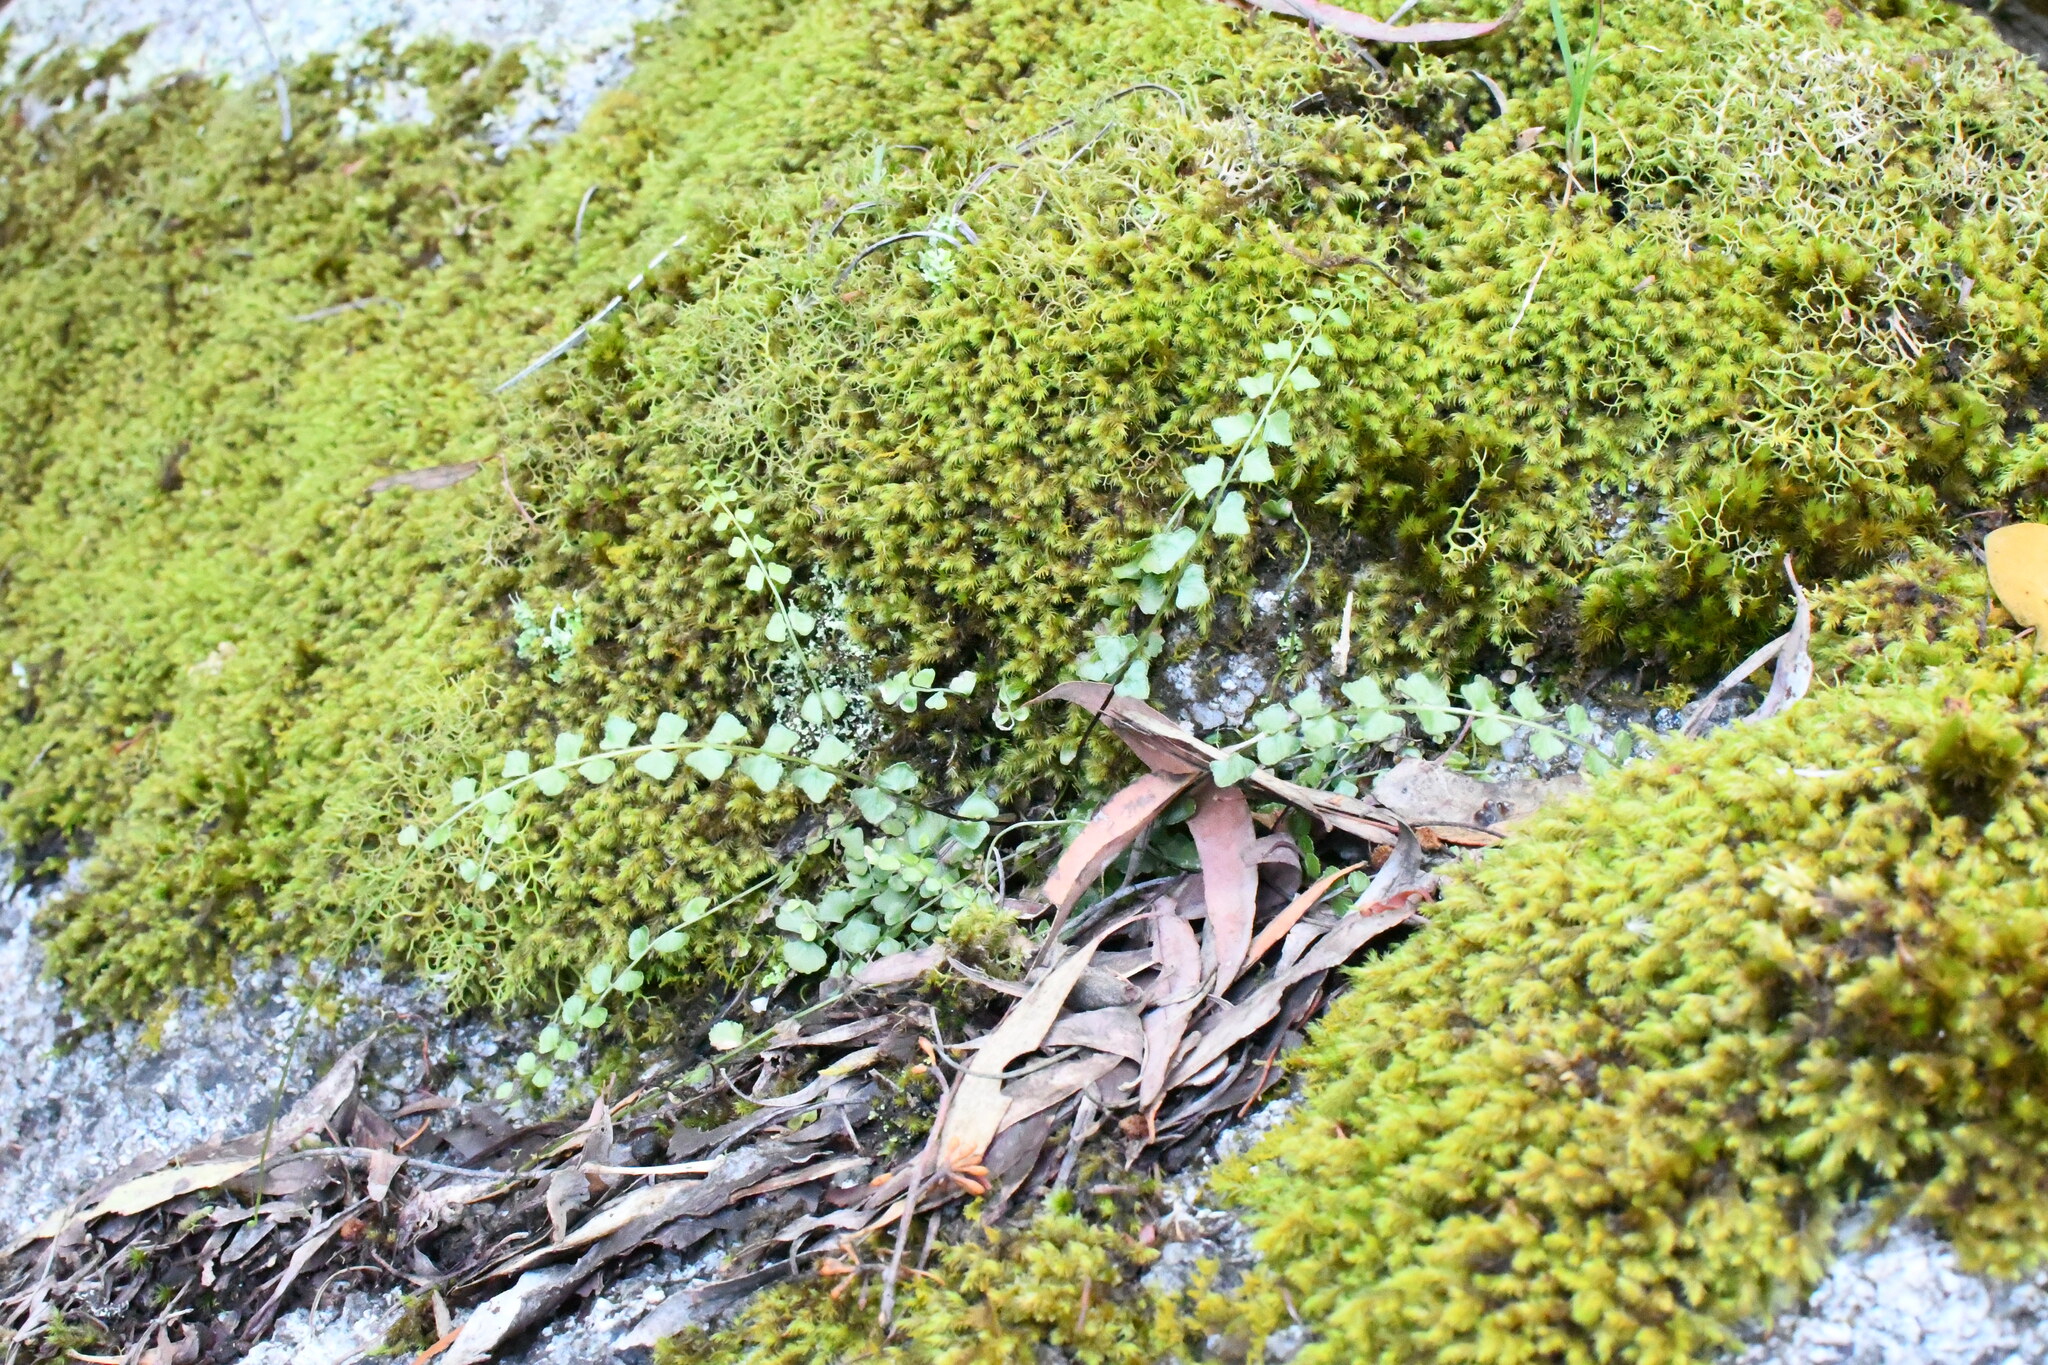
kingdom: Plantae
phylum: Tracheophyta
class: Polypodiopsida
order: Polypodiales
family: Aspleniaceae
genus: Asplenium
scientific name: Asplenium flabellifolium
